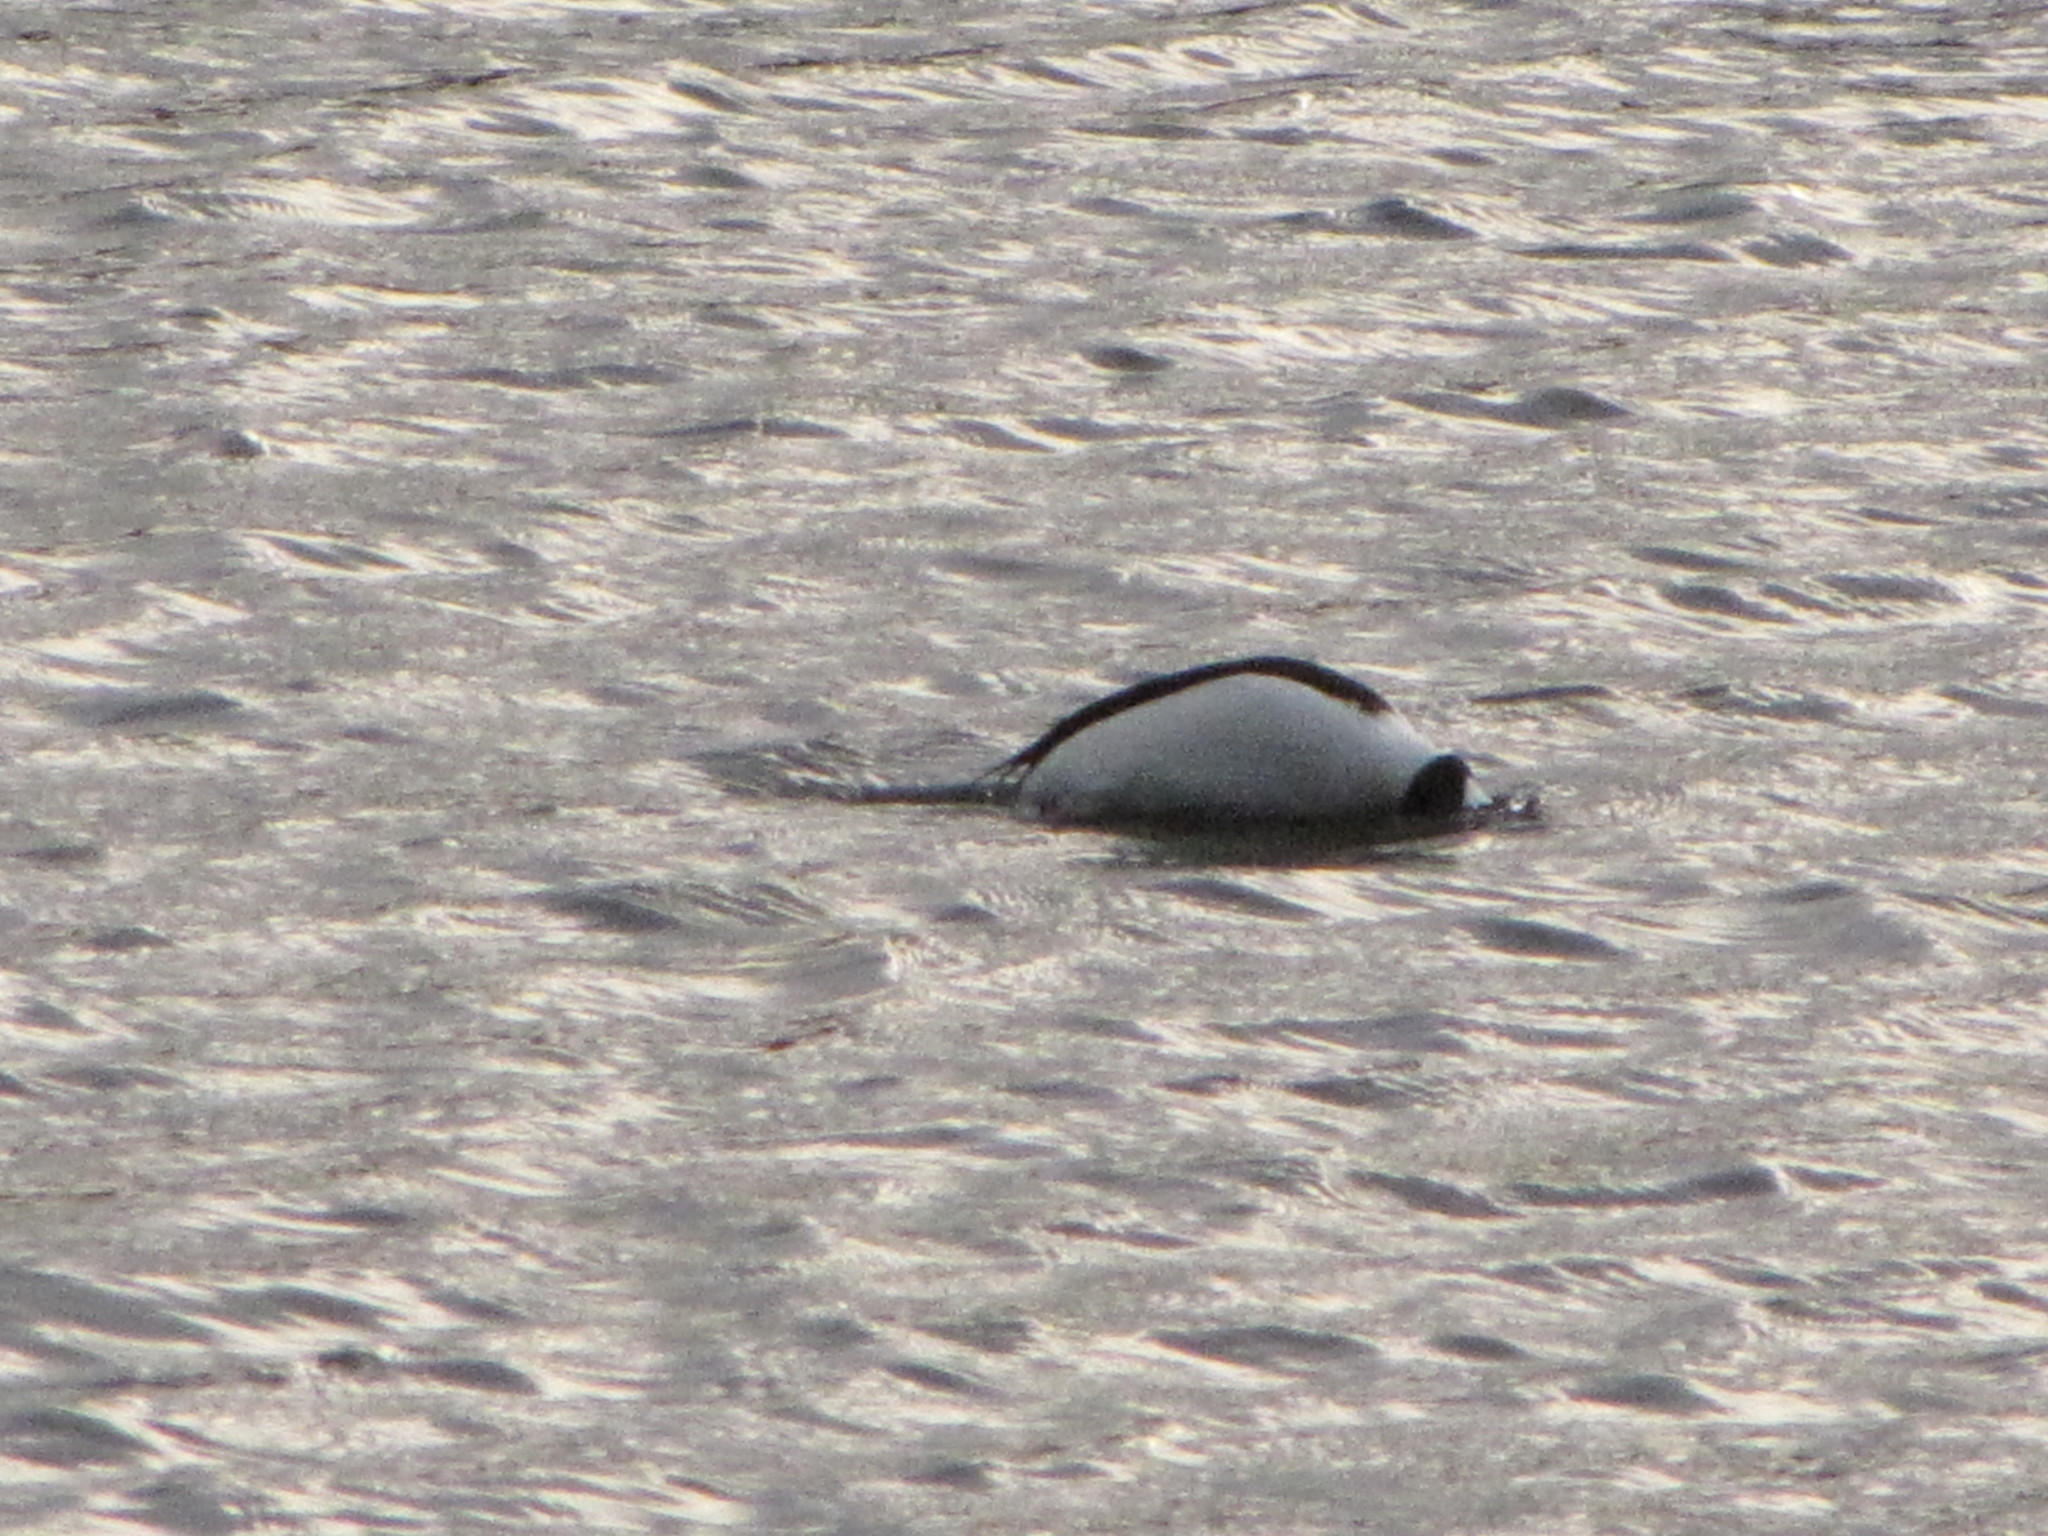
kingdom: Animalia
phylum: Chordata
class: Aves
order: Anseriformes
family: Anatidae
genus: Bucephala
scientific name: Bucephala albeola
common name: Bufflehead
